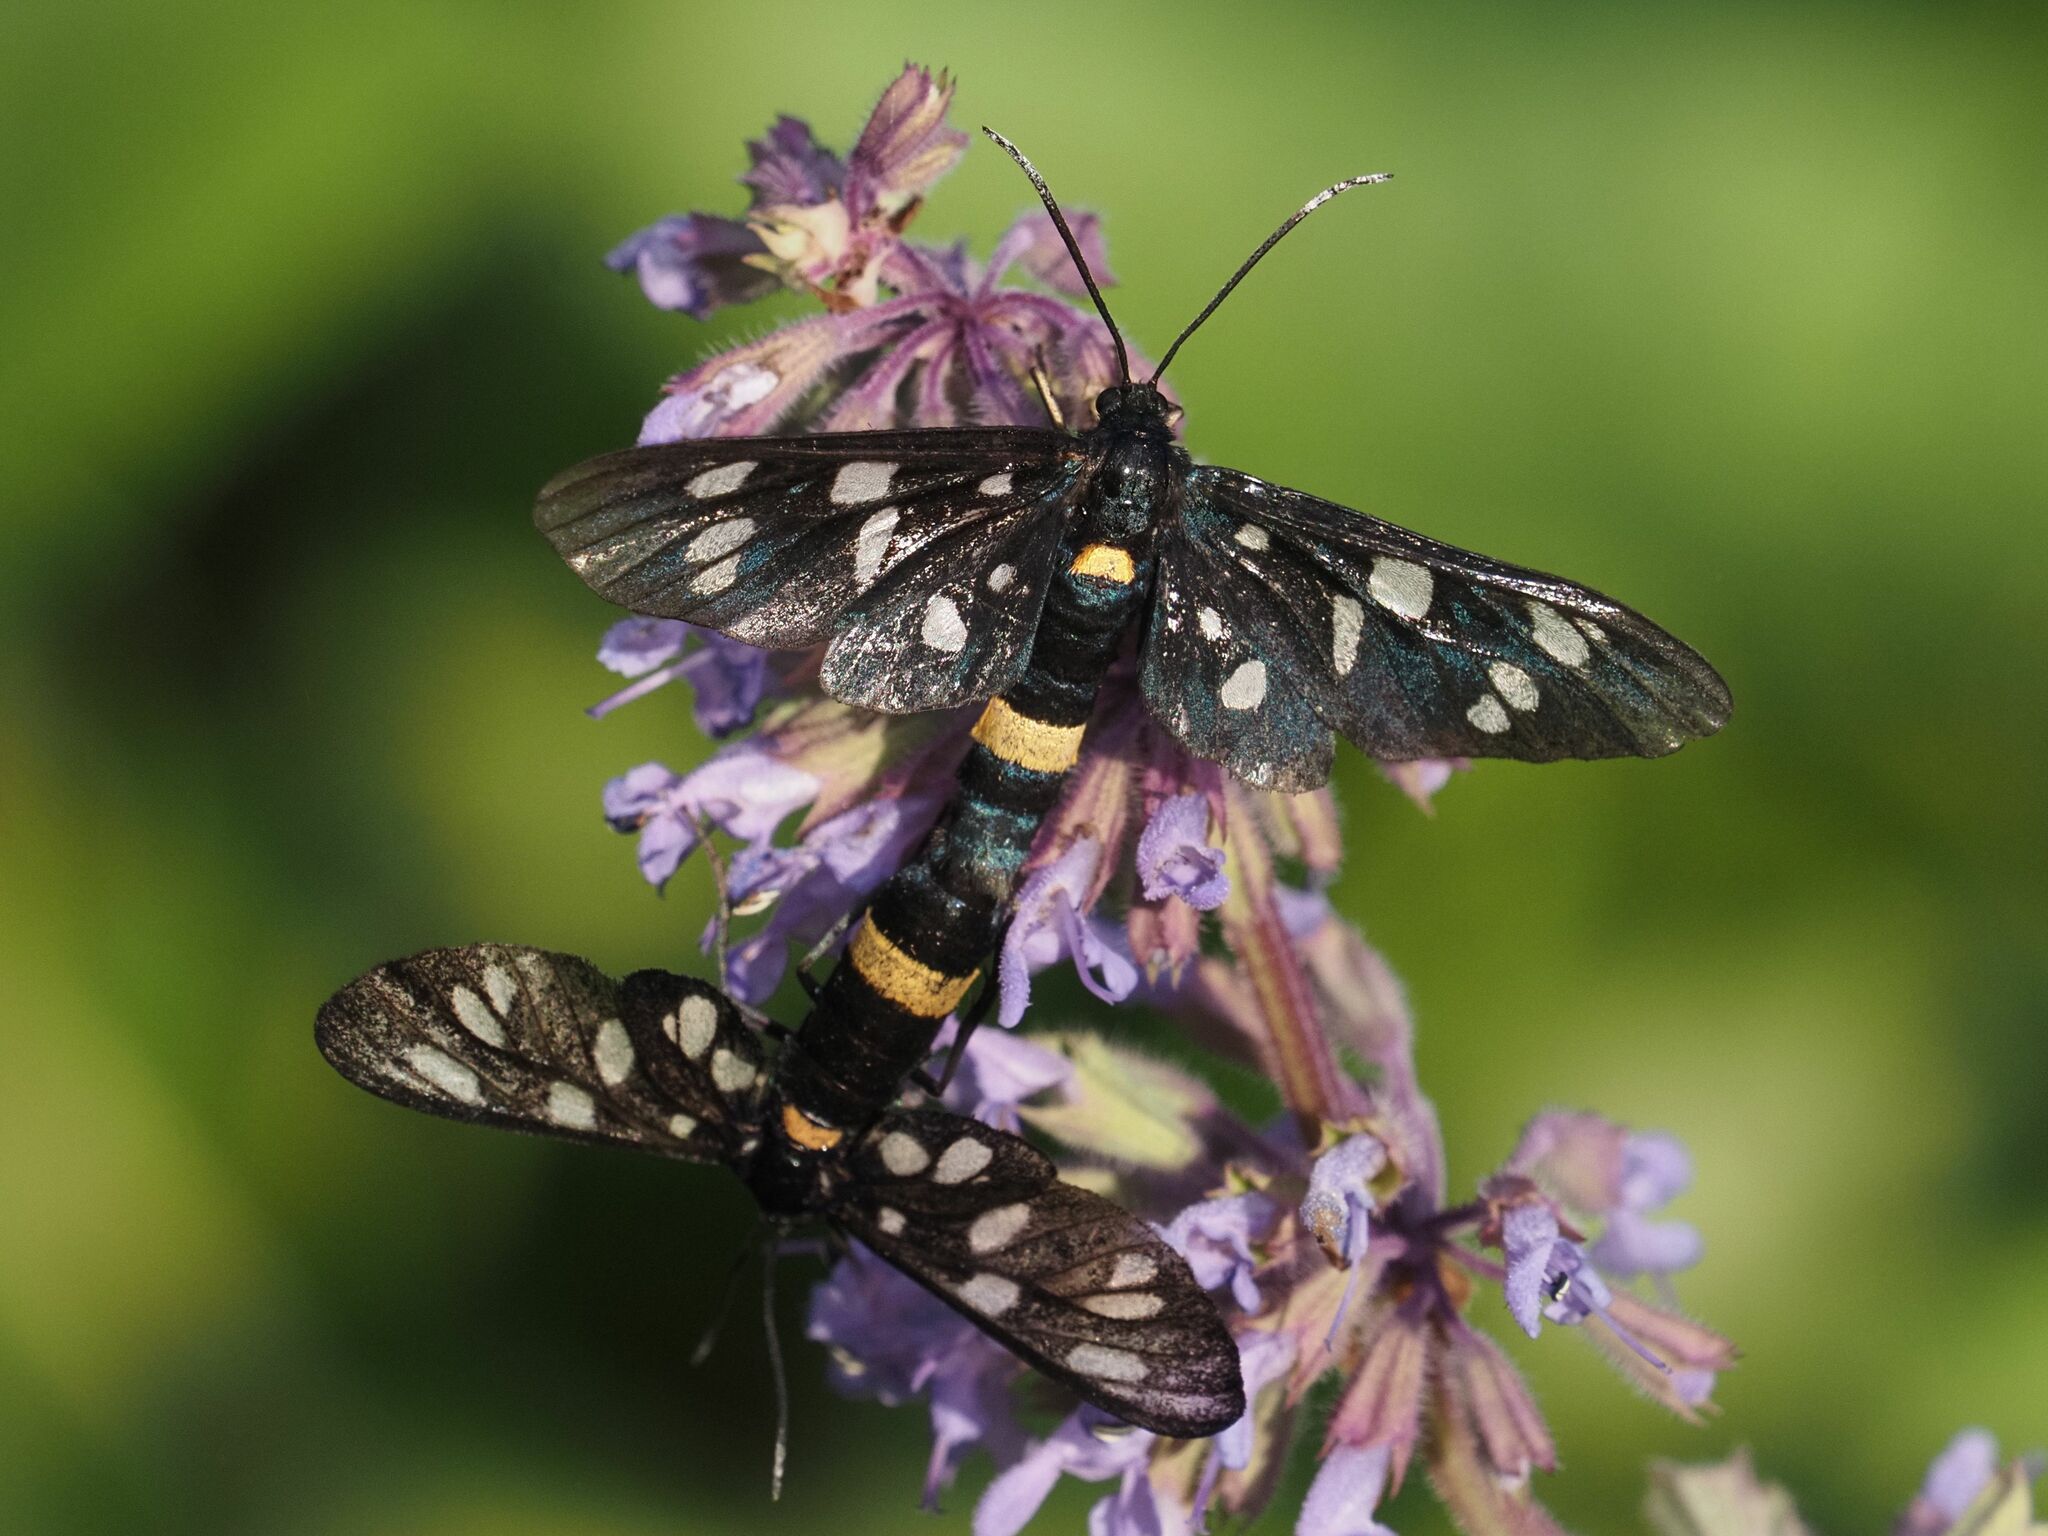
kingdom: Animalia
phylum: Arthropoda
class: Insecta
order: Lepidoptera
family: Erebidae
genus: Amata
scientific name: Amata phegea
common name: Nine-spotted
